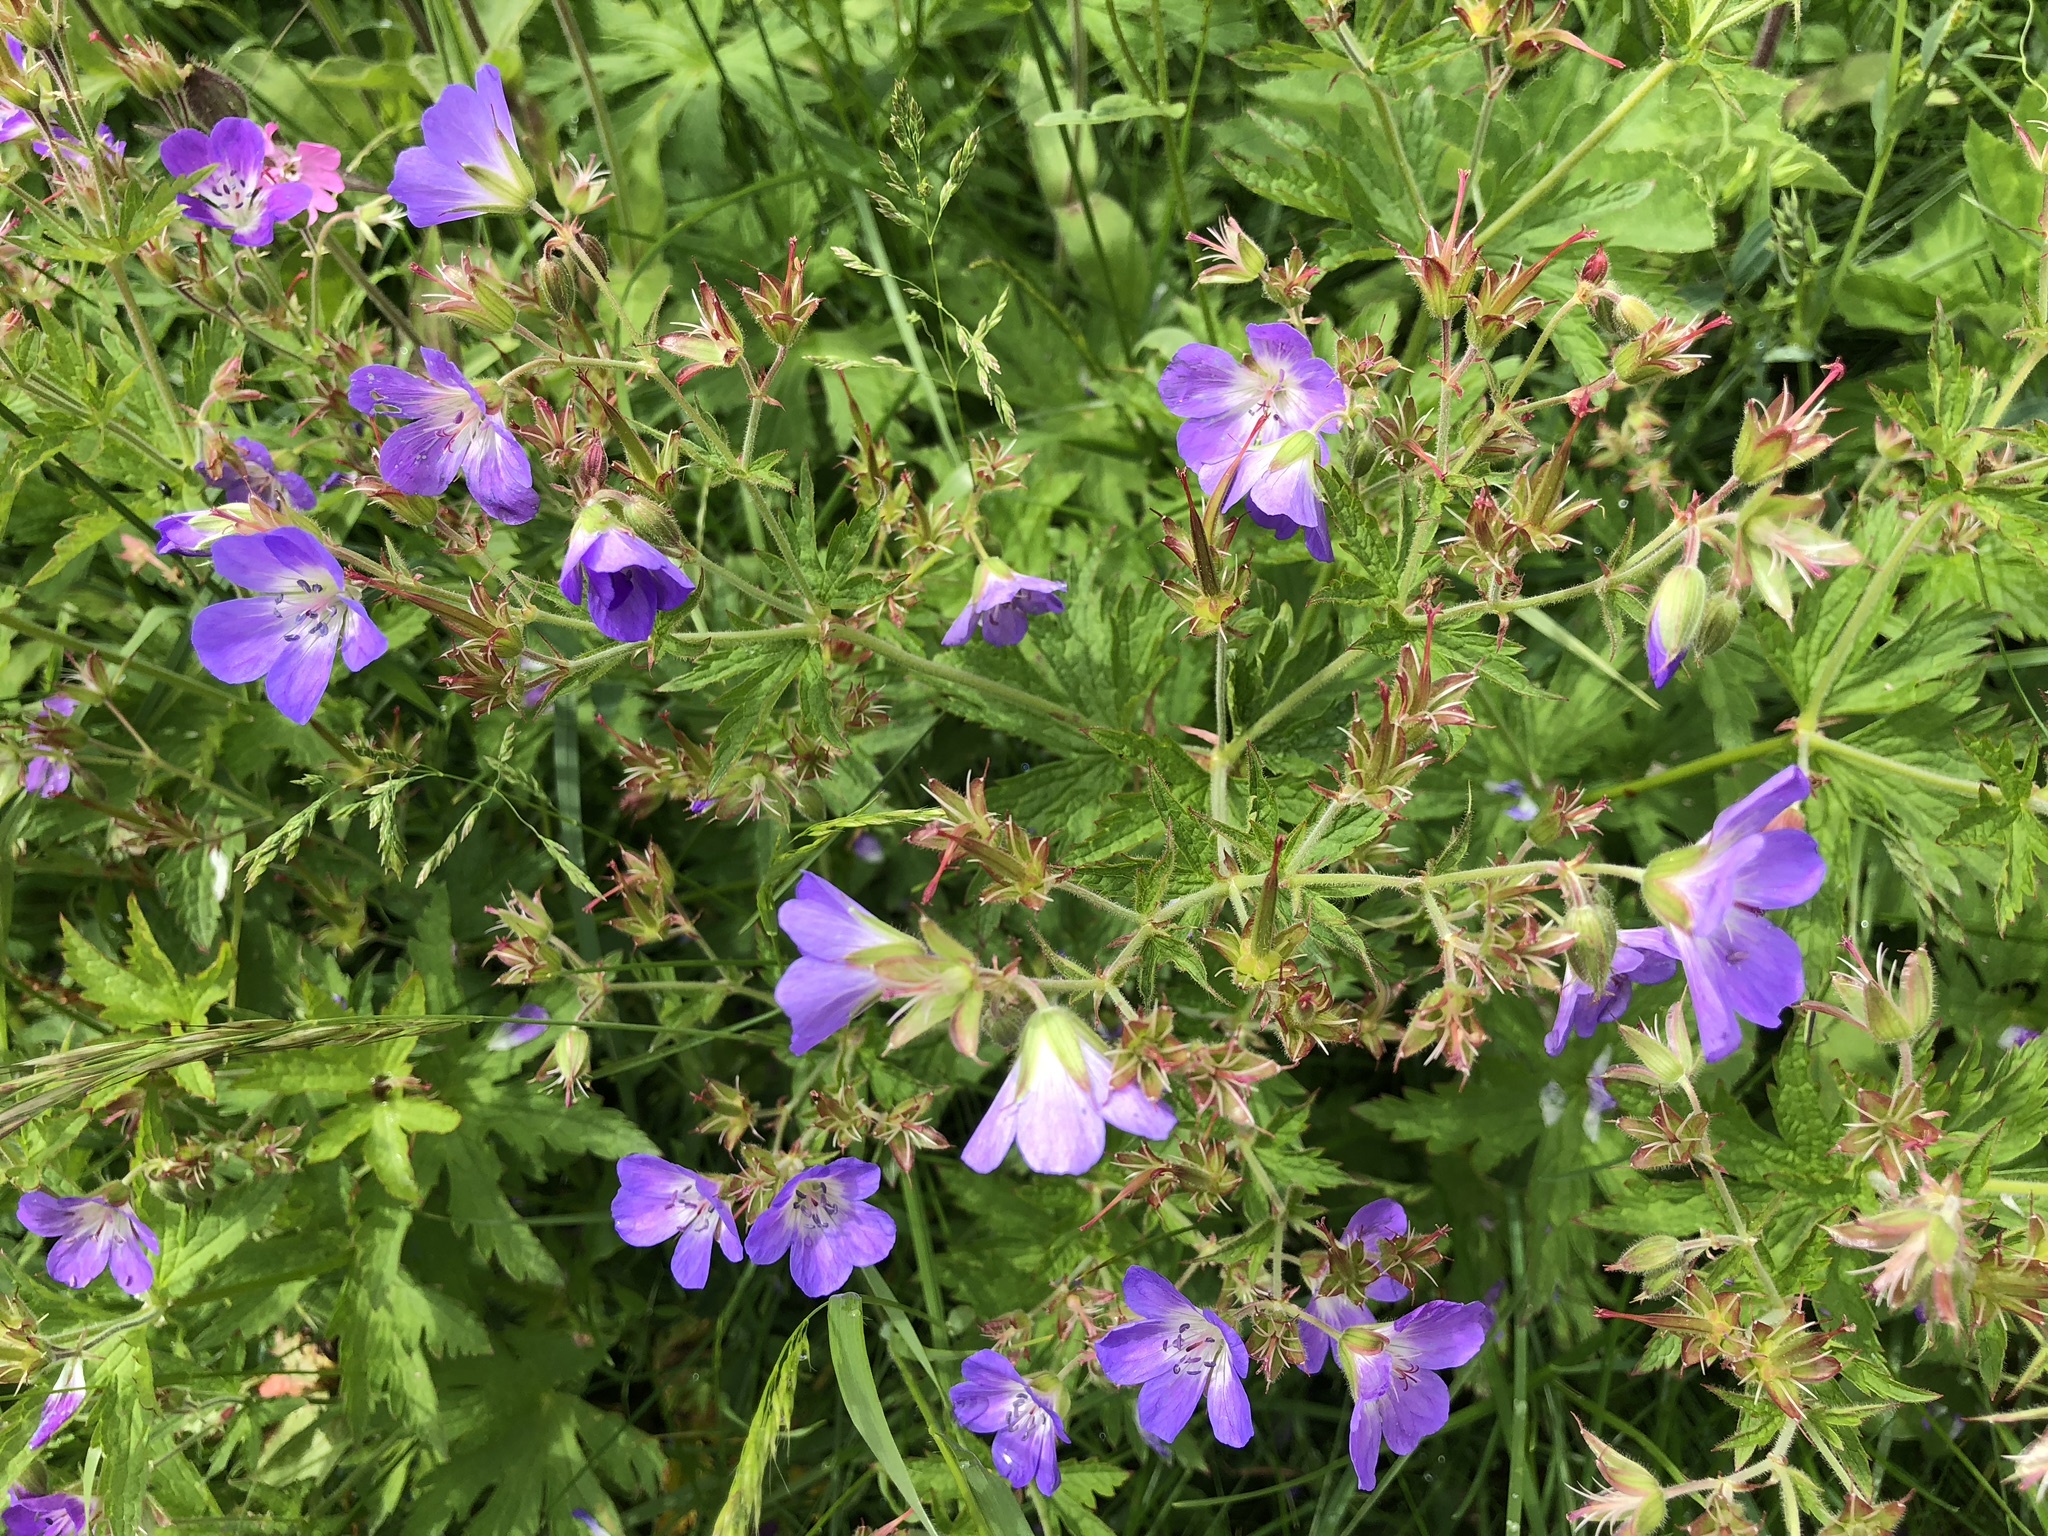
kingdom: Plantae
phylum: Tracheophyta
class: Magnoliopsida
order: Geraniales
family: Geraniaceae
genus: Geranium
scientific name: Geranium sylvaticum
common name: Wood crane's-bill
